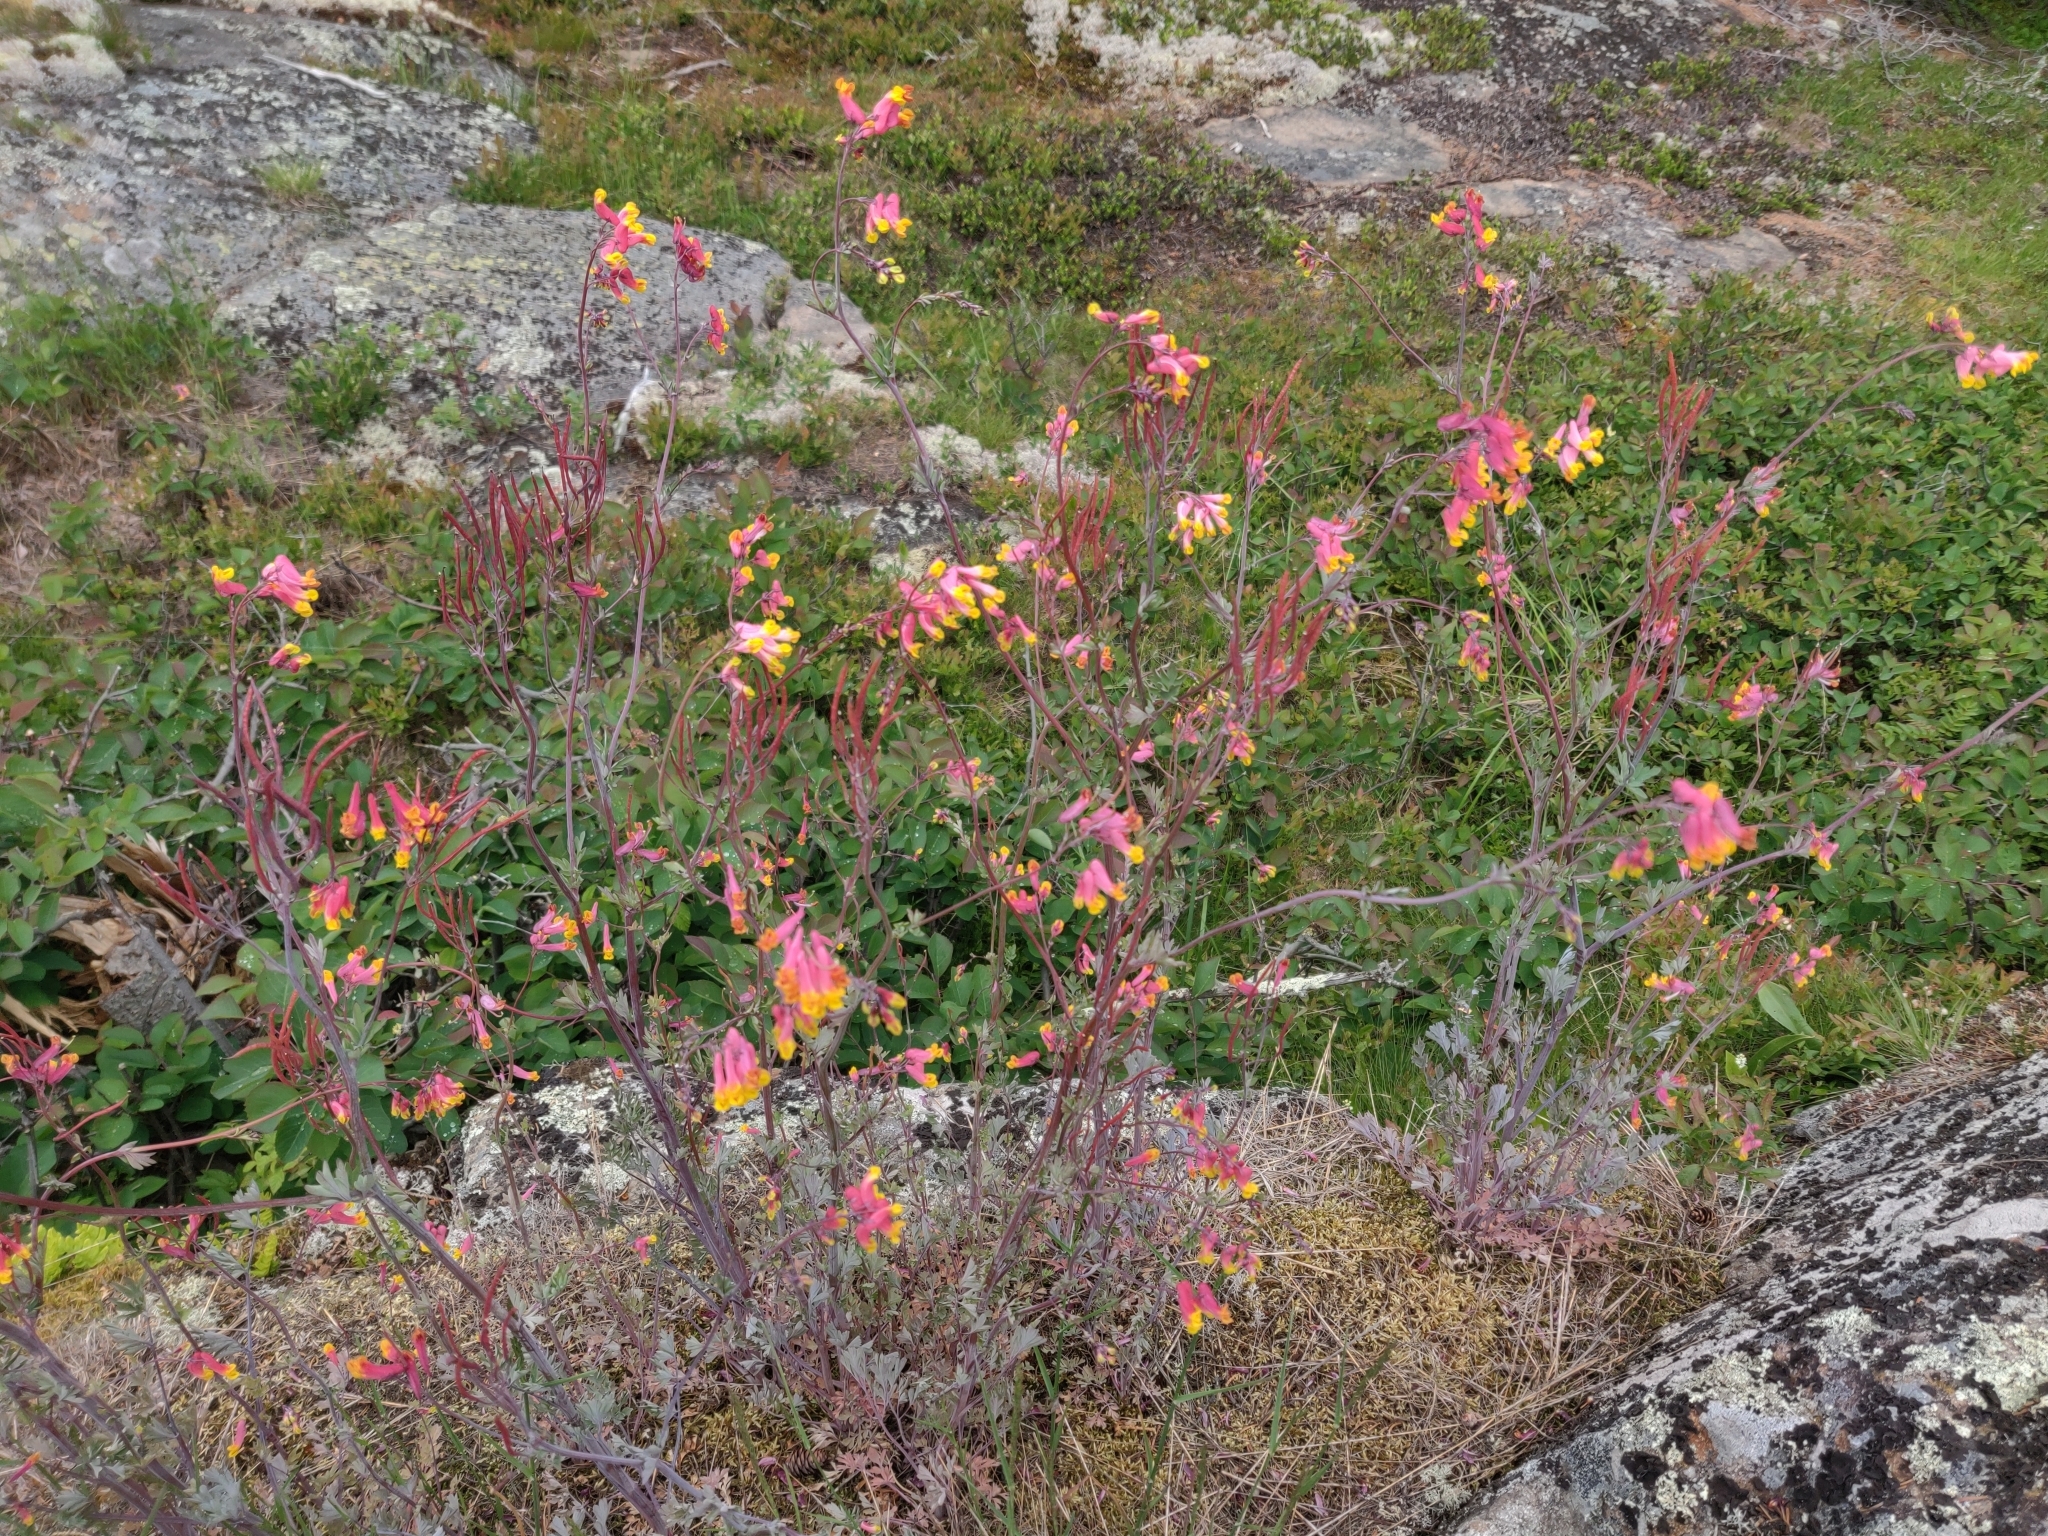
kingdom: Plantae
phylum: Tracheophyta
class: Magnoliopsida
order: Ranunculales
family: Papaveraceae
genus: Capnoides
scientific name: Capnoides sempervirens
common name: Rock harlequin
